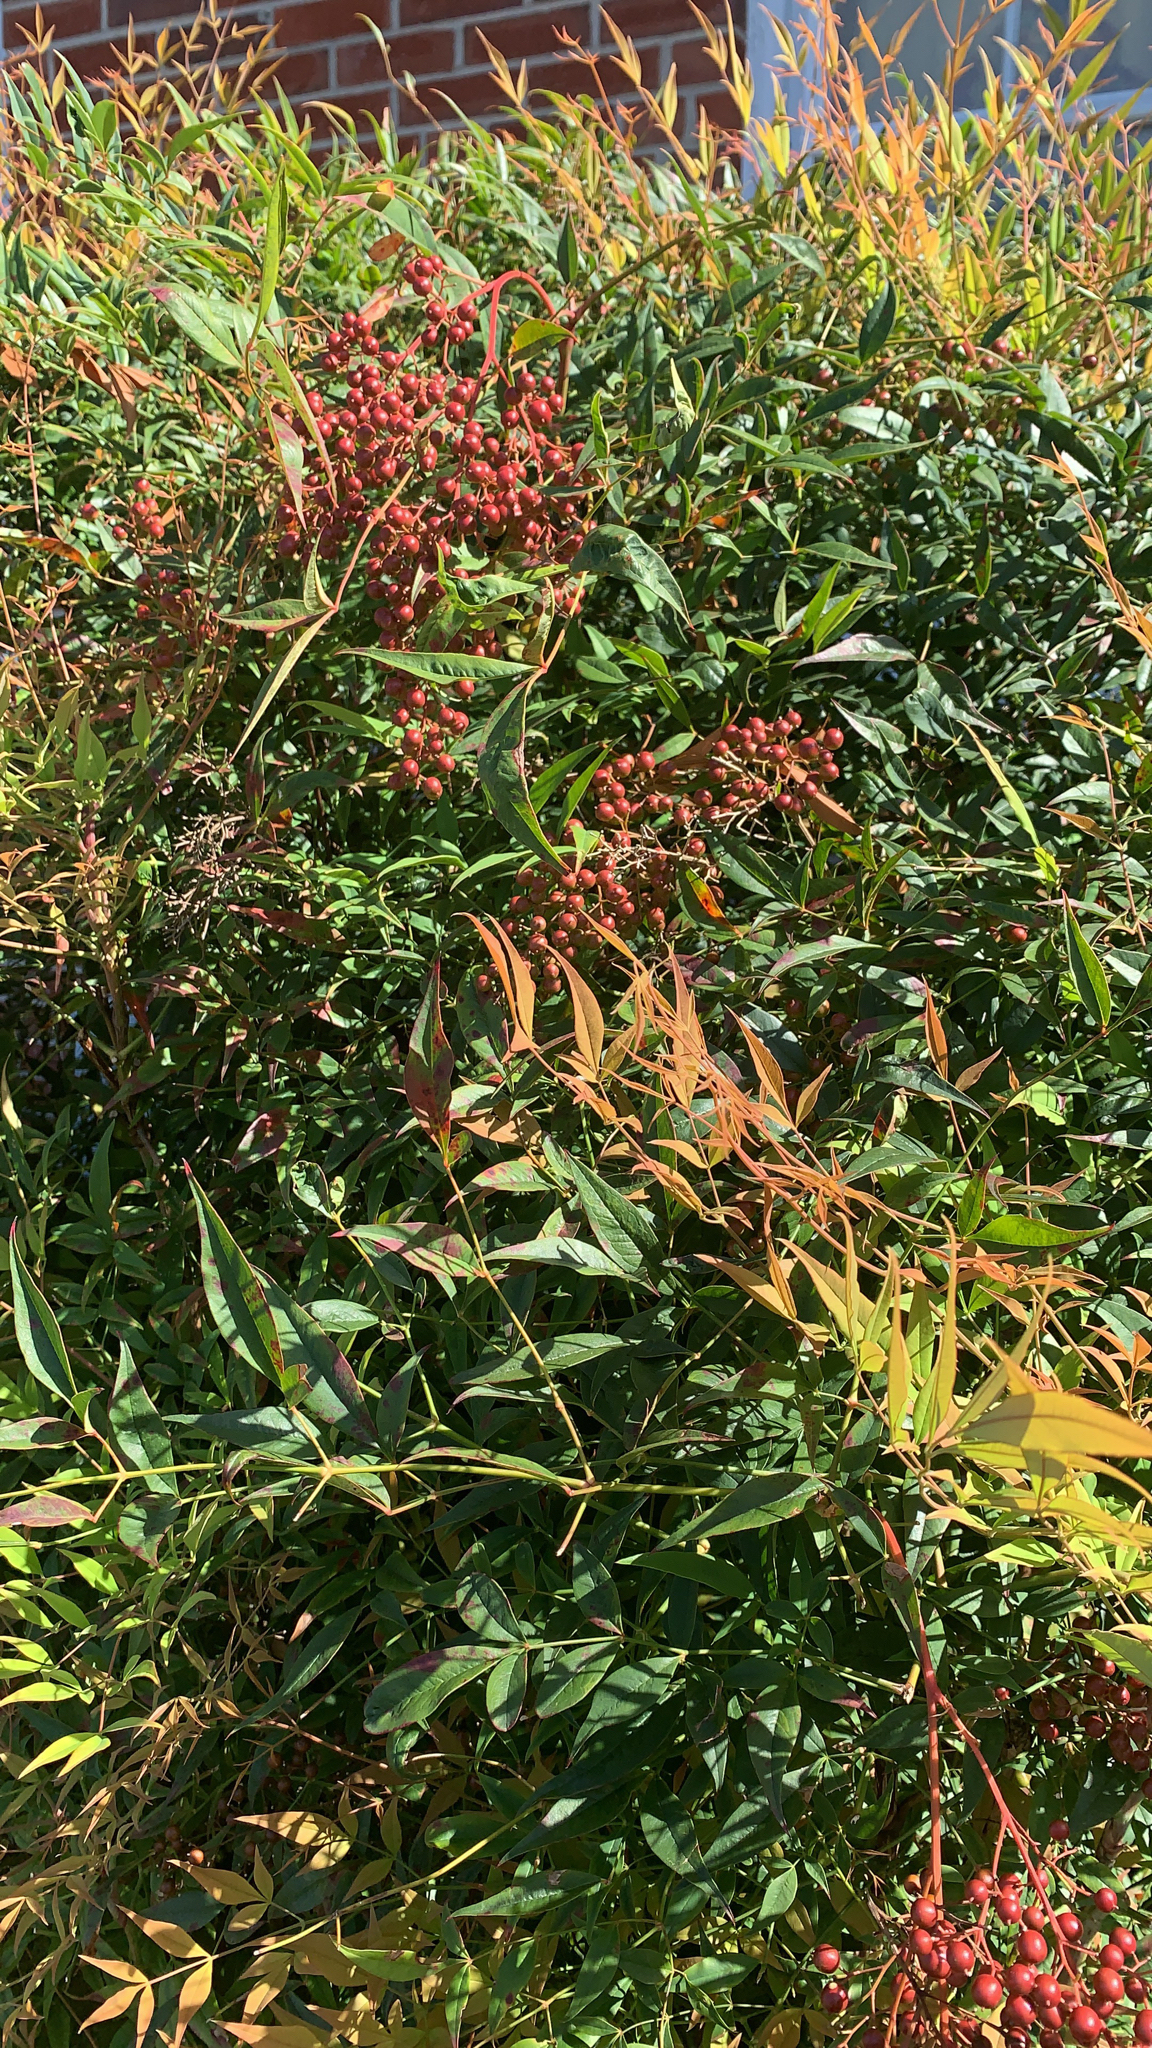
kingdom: Plantae
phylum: Tracheophyta
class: Magnoliopsida
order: Ranunculales
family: Berberidaceae
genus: Nandina
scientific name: Nandina domestica
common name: Sacred bamboo
